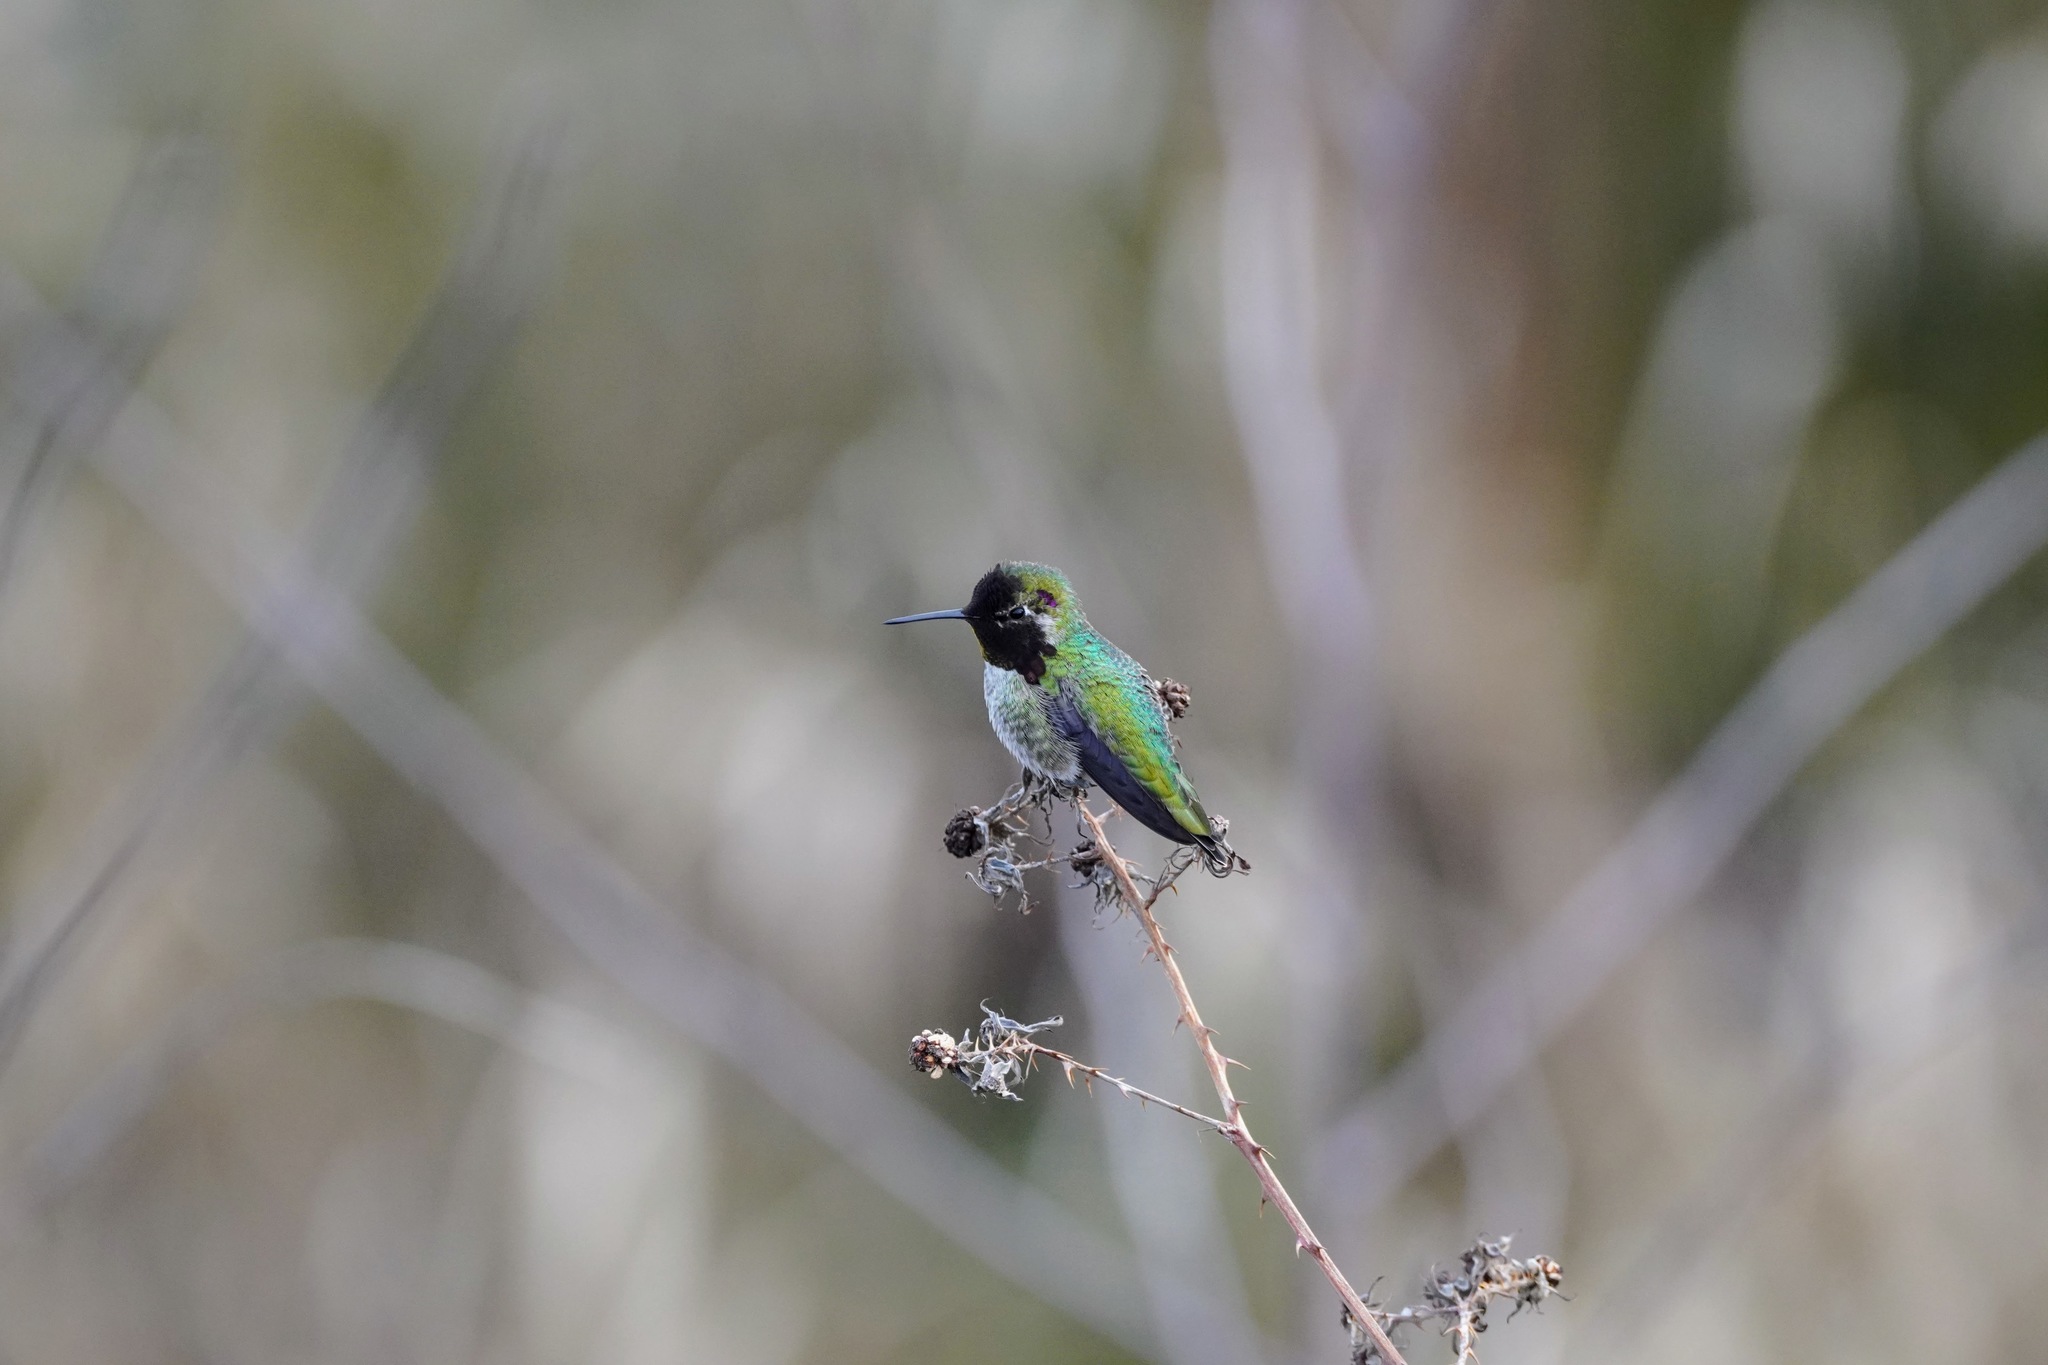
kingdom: Animalia
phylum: Chordata
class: Aves
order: Apodiformes
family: Trochilidae
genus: Calypte
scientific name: Calypte anna
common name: Anna's hummingbird
